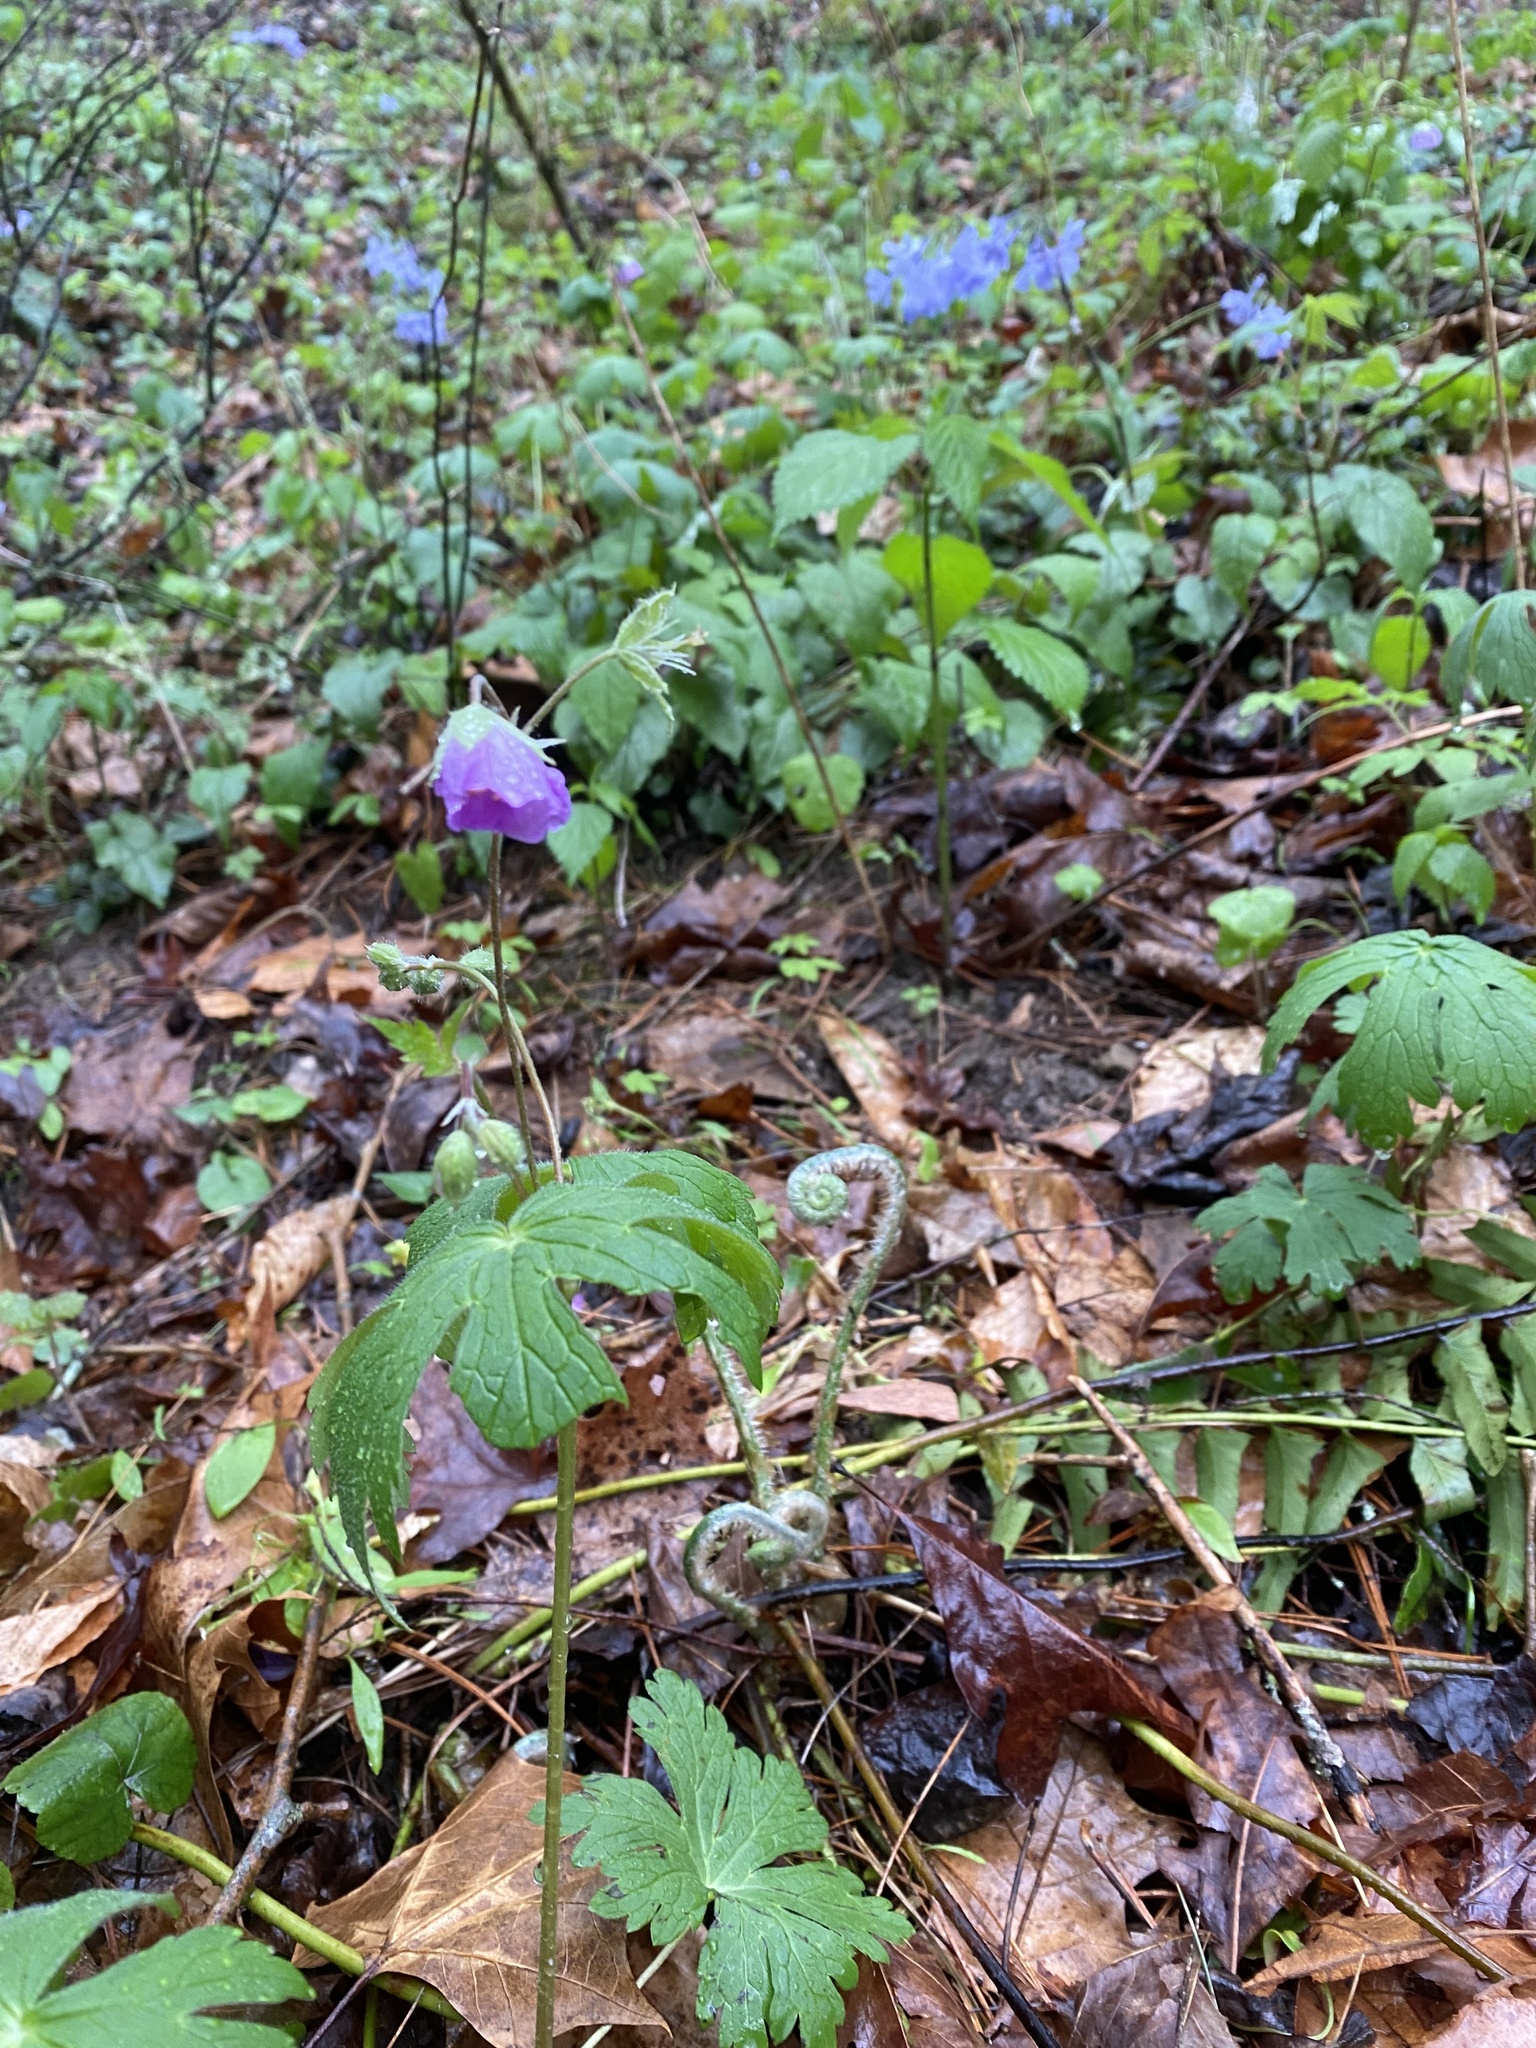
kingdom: Plantae
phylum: Tracheophyta
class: Magnoliopsida
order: Geraniales
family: Geraniaceae
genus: Geranium
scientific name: Geranium maculatum
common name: Spotted geranium
